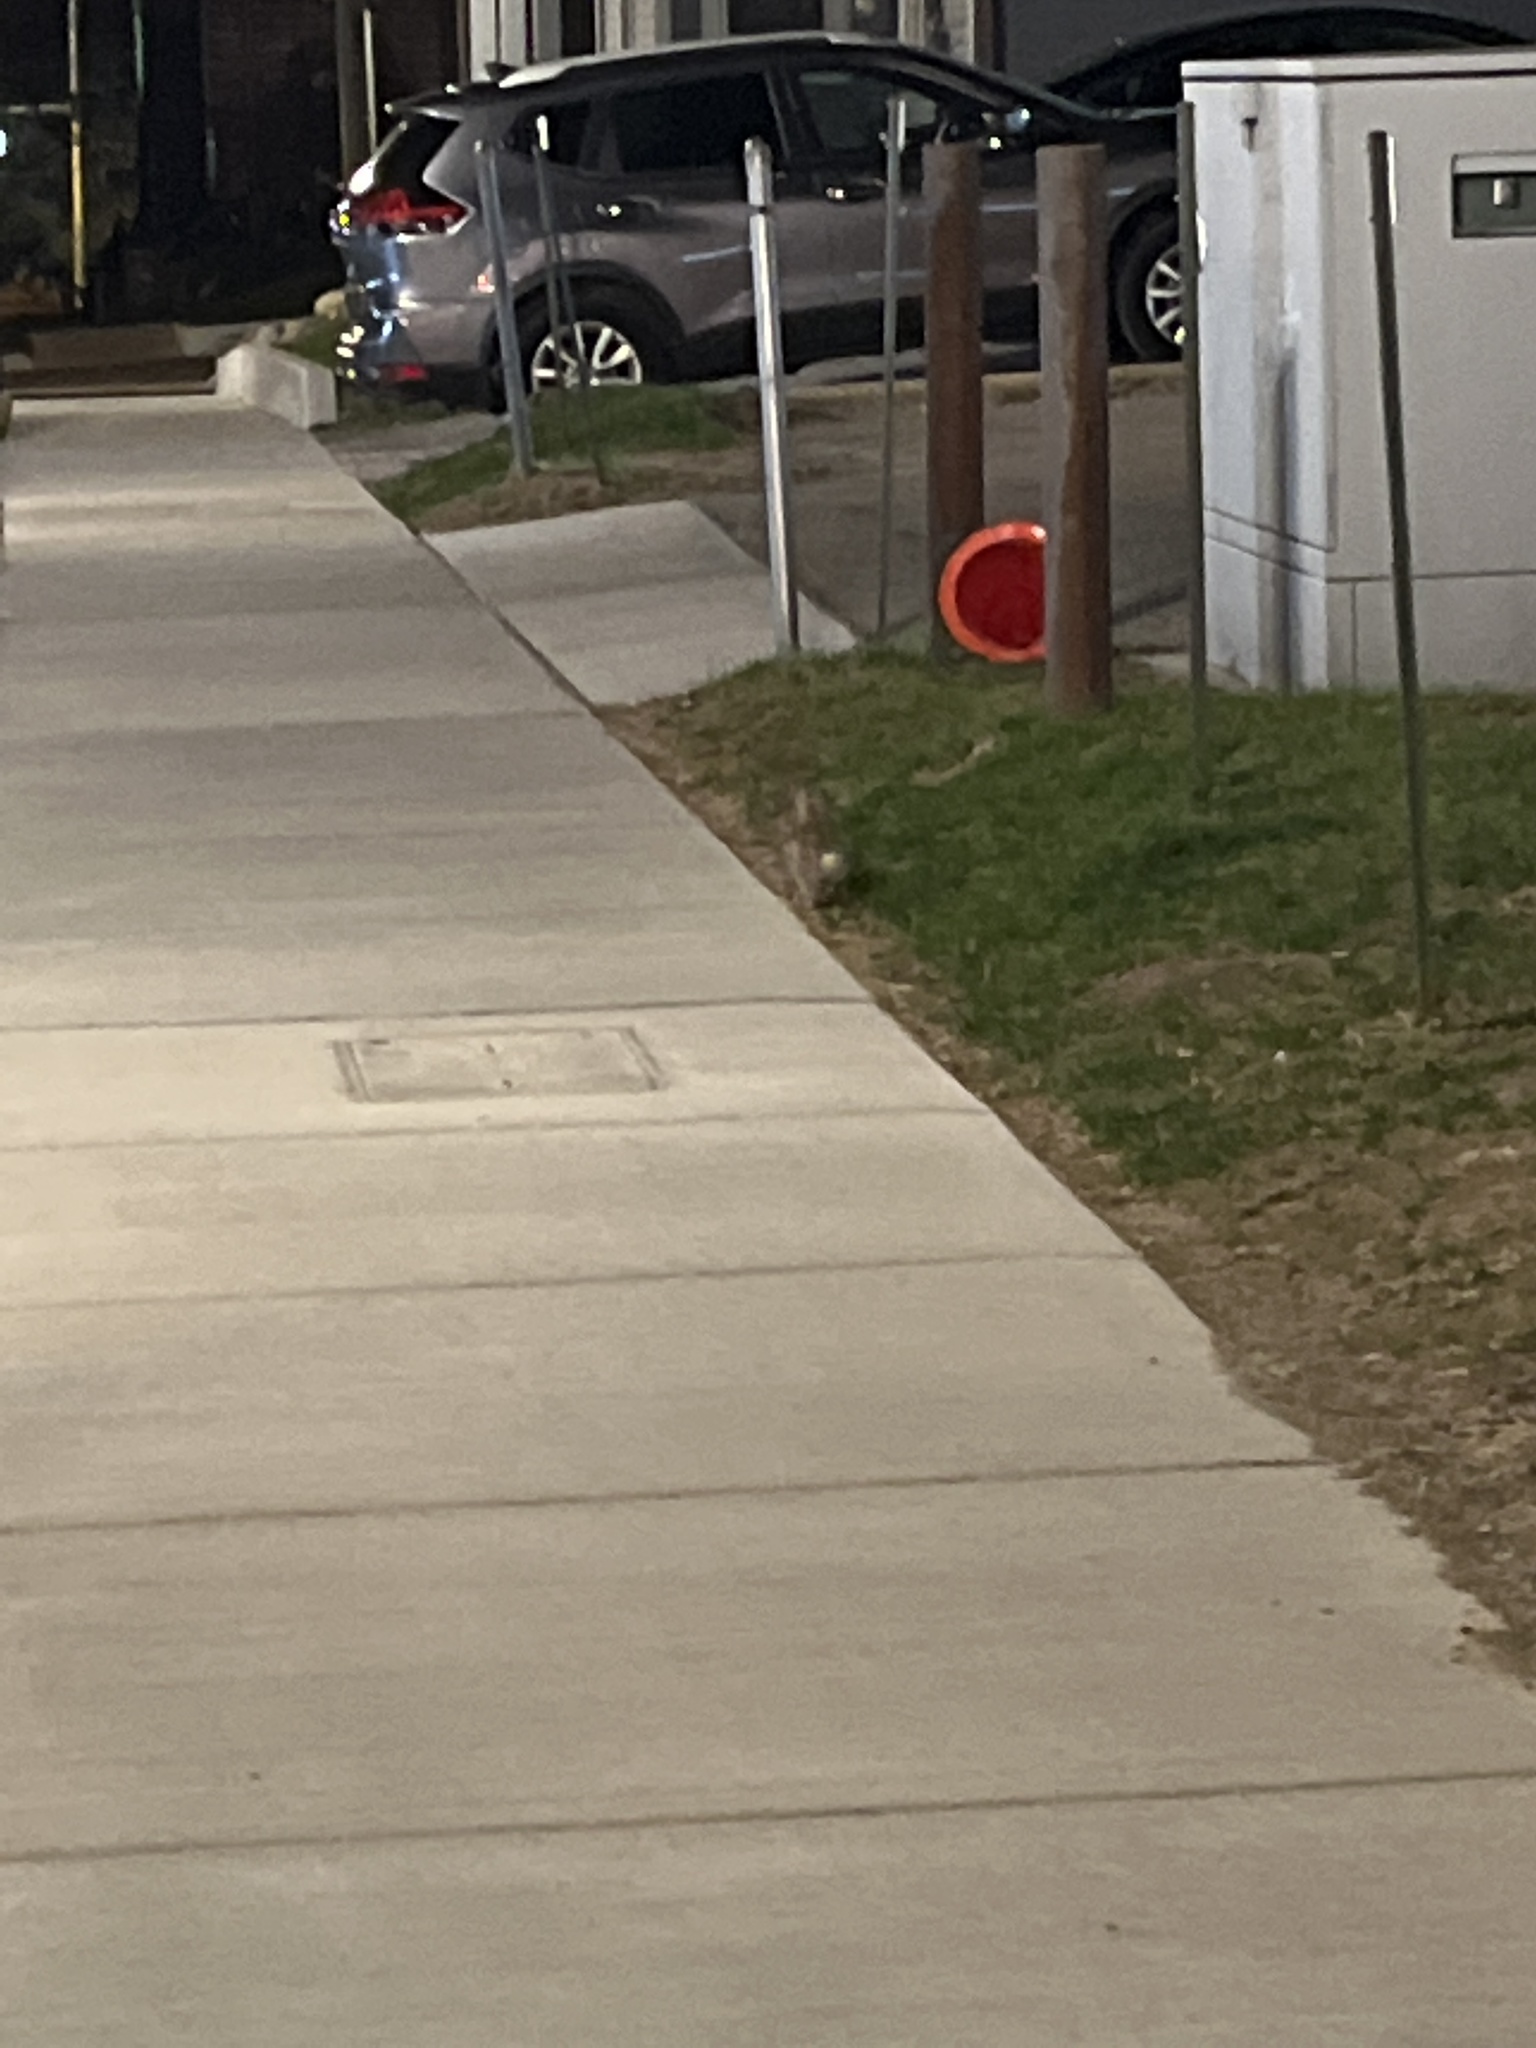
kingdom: Animalia
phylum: Chordata
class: Mammalia
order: Lagomorpha
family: Leporidae
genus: Sylvilagus
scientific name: Sylvilagus floridanus
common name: Eastern cottontail
